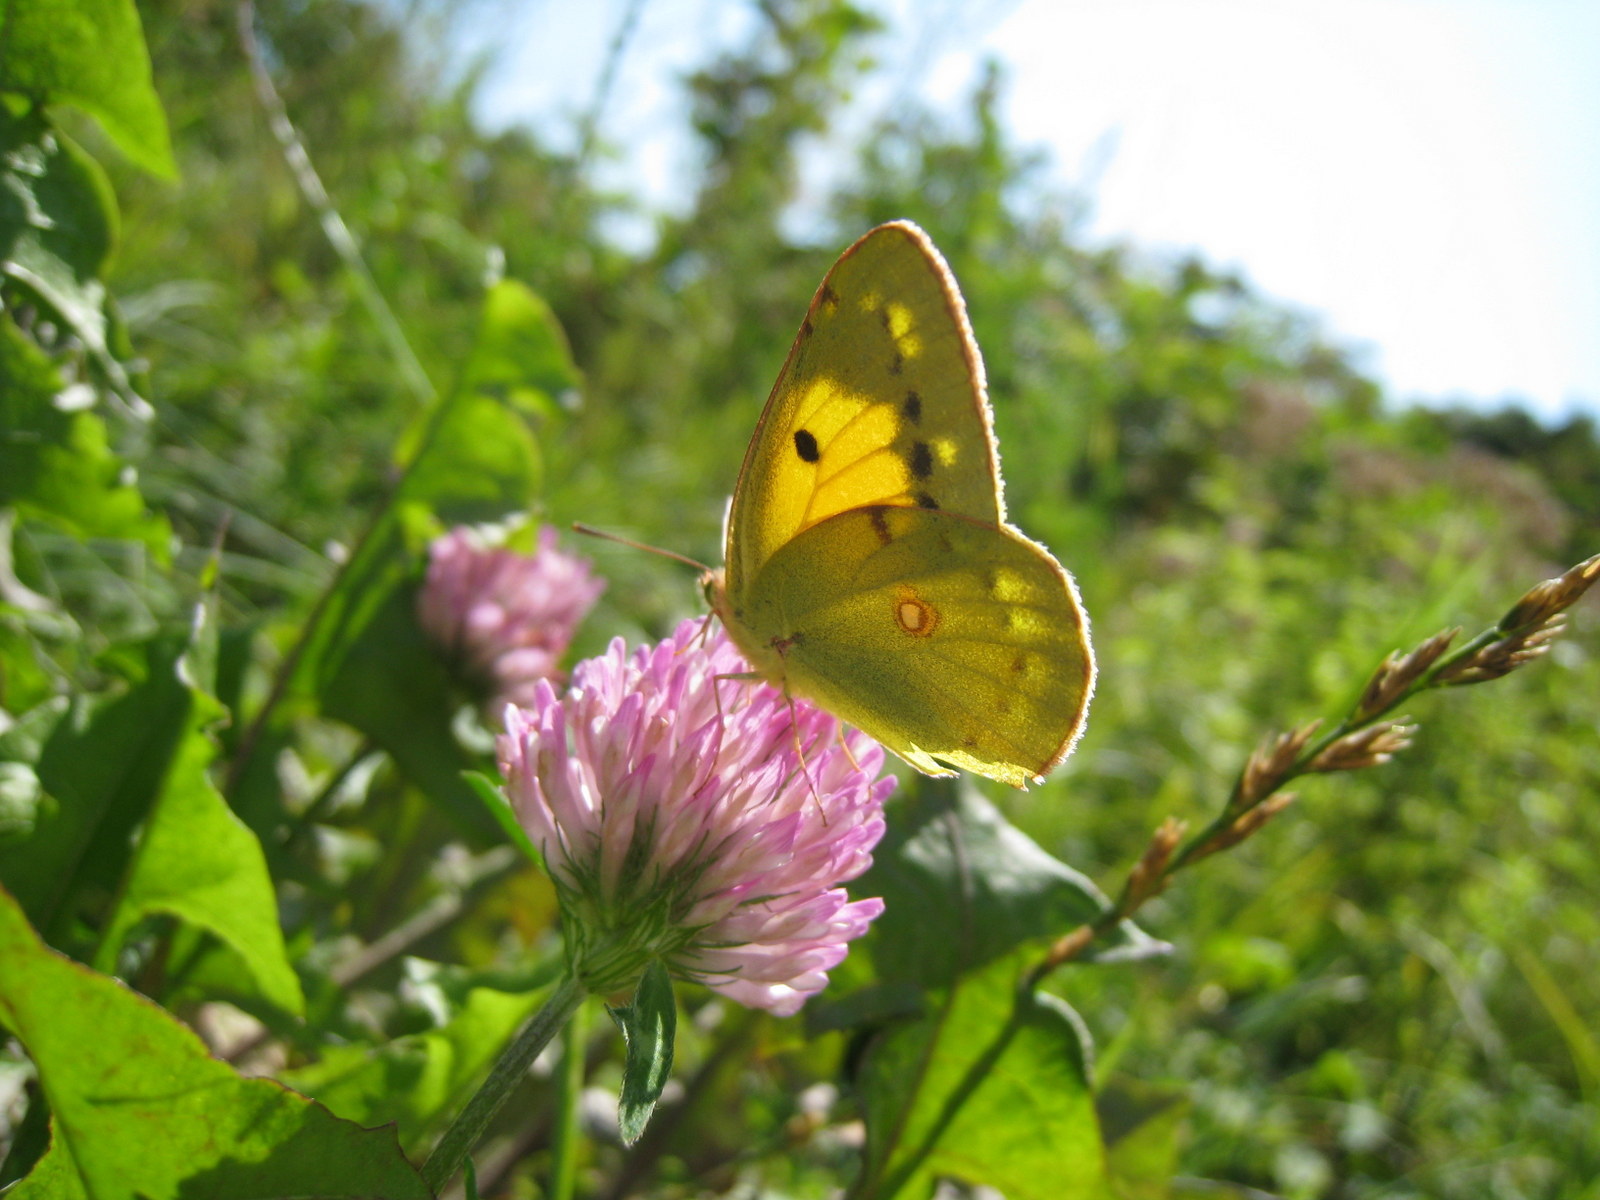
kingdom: Animalia
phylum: Arthropoda
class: Insecta
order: Lepidoptera
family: Pieridae
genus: Colias
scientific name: Colias croceus
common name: Clouded yellow
